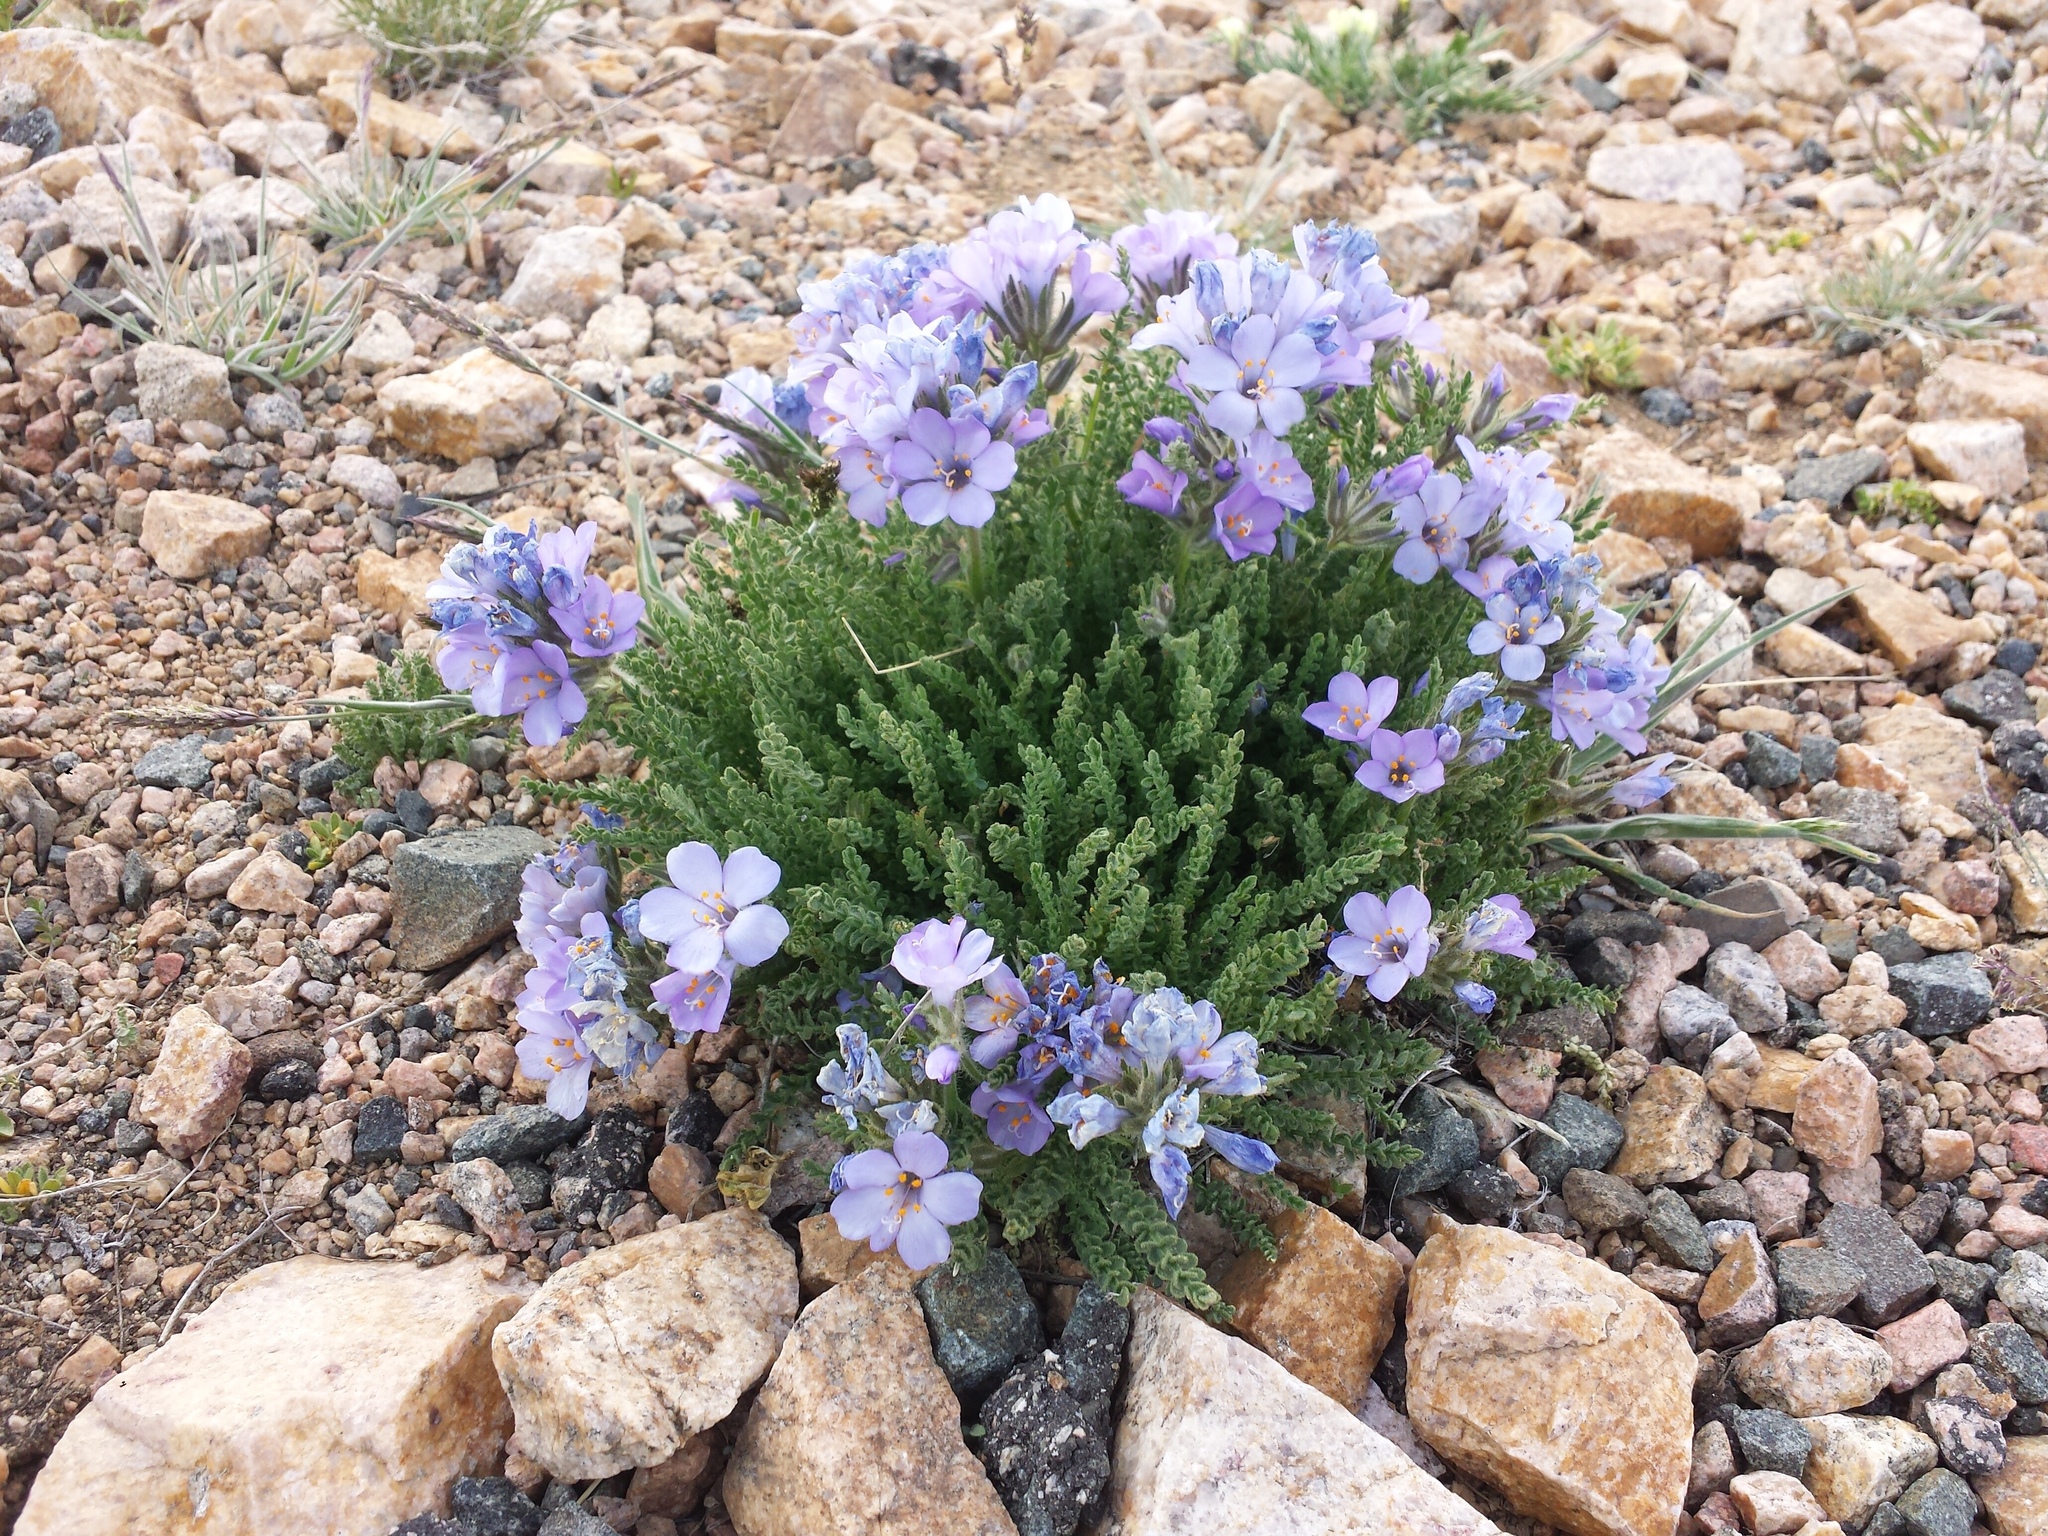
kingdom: Plantae
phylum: Tracheophyta
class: Magnoliopsida
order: Ericales
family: Polemoniaceae
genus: Polemonium
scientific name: Polemonium viscosum
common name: Skunk jacob's-ladder
